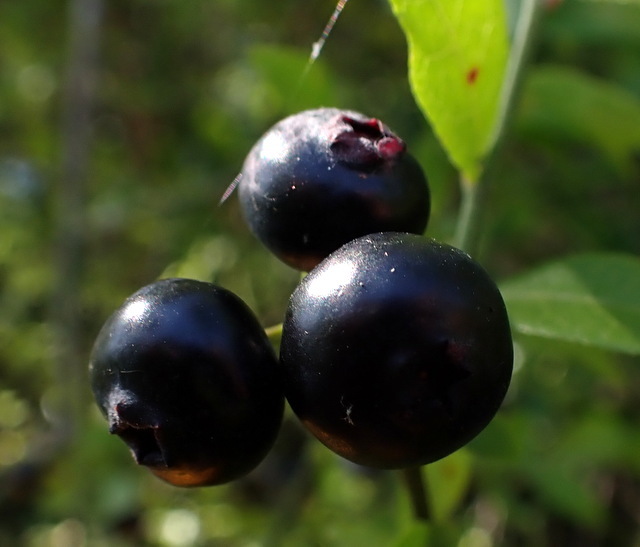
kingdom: Plantae
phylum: Tracheophyta
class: Magnoliopsida
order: Ericales
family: Ericaceae
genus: Vaccinium
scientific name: Vaccinium corymbosum
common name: Blueberry
